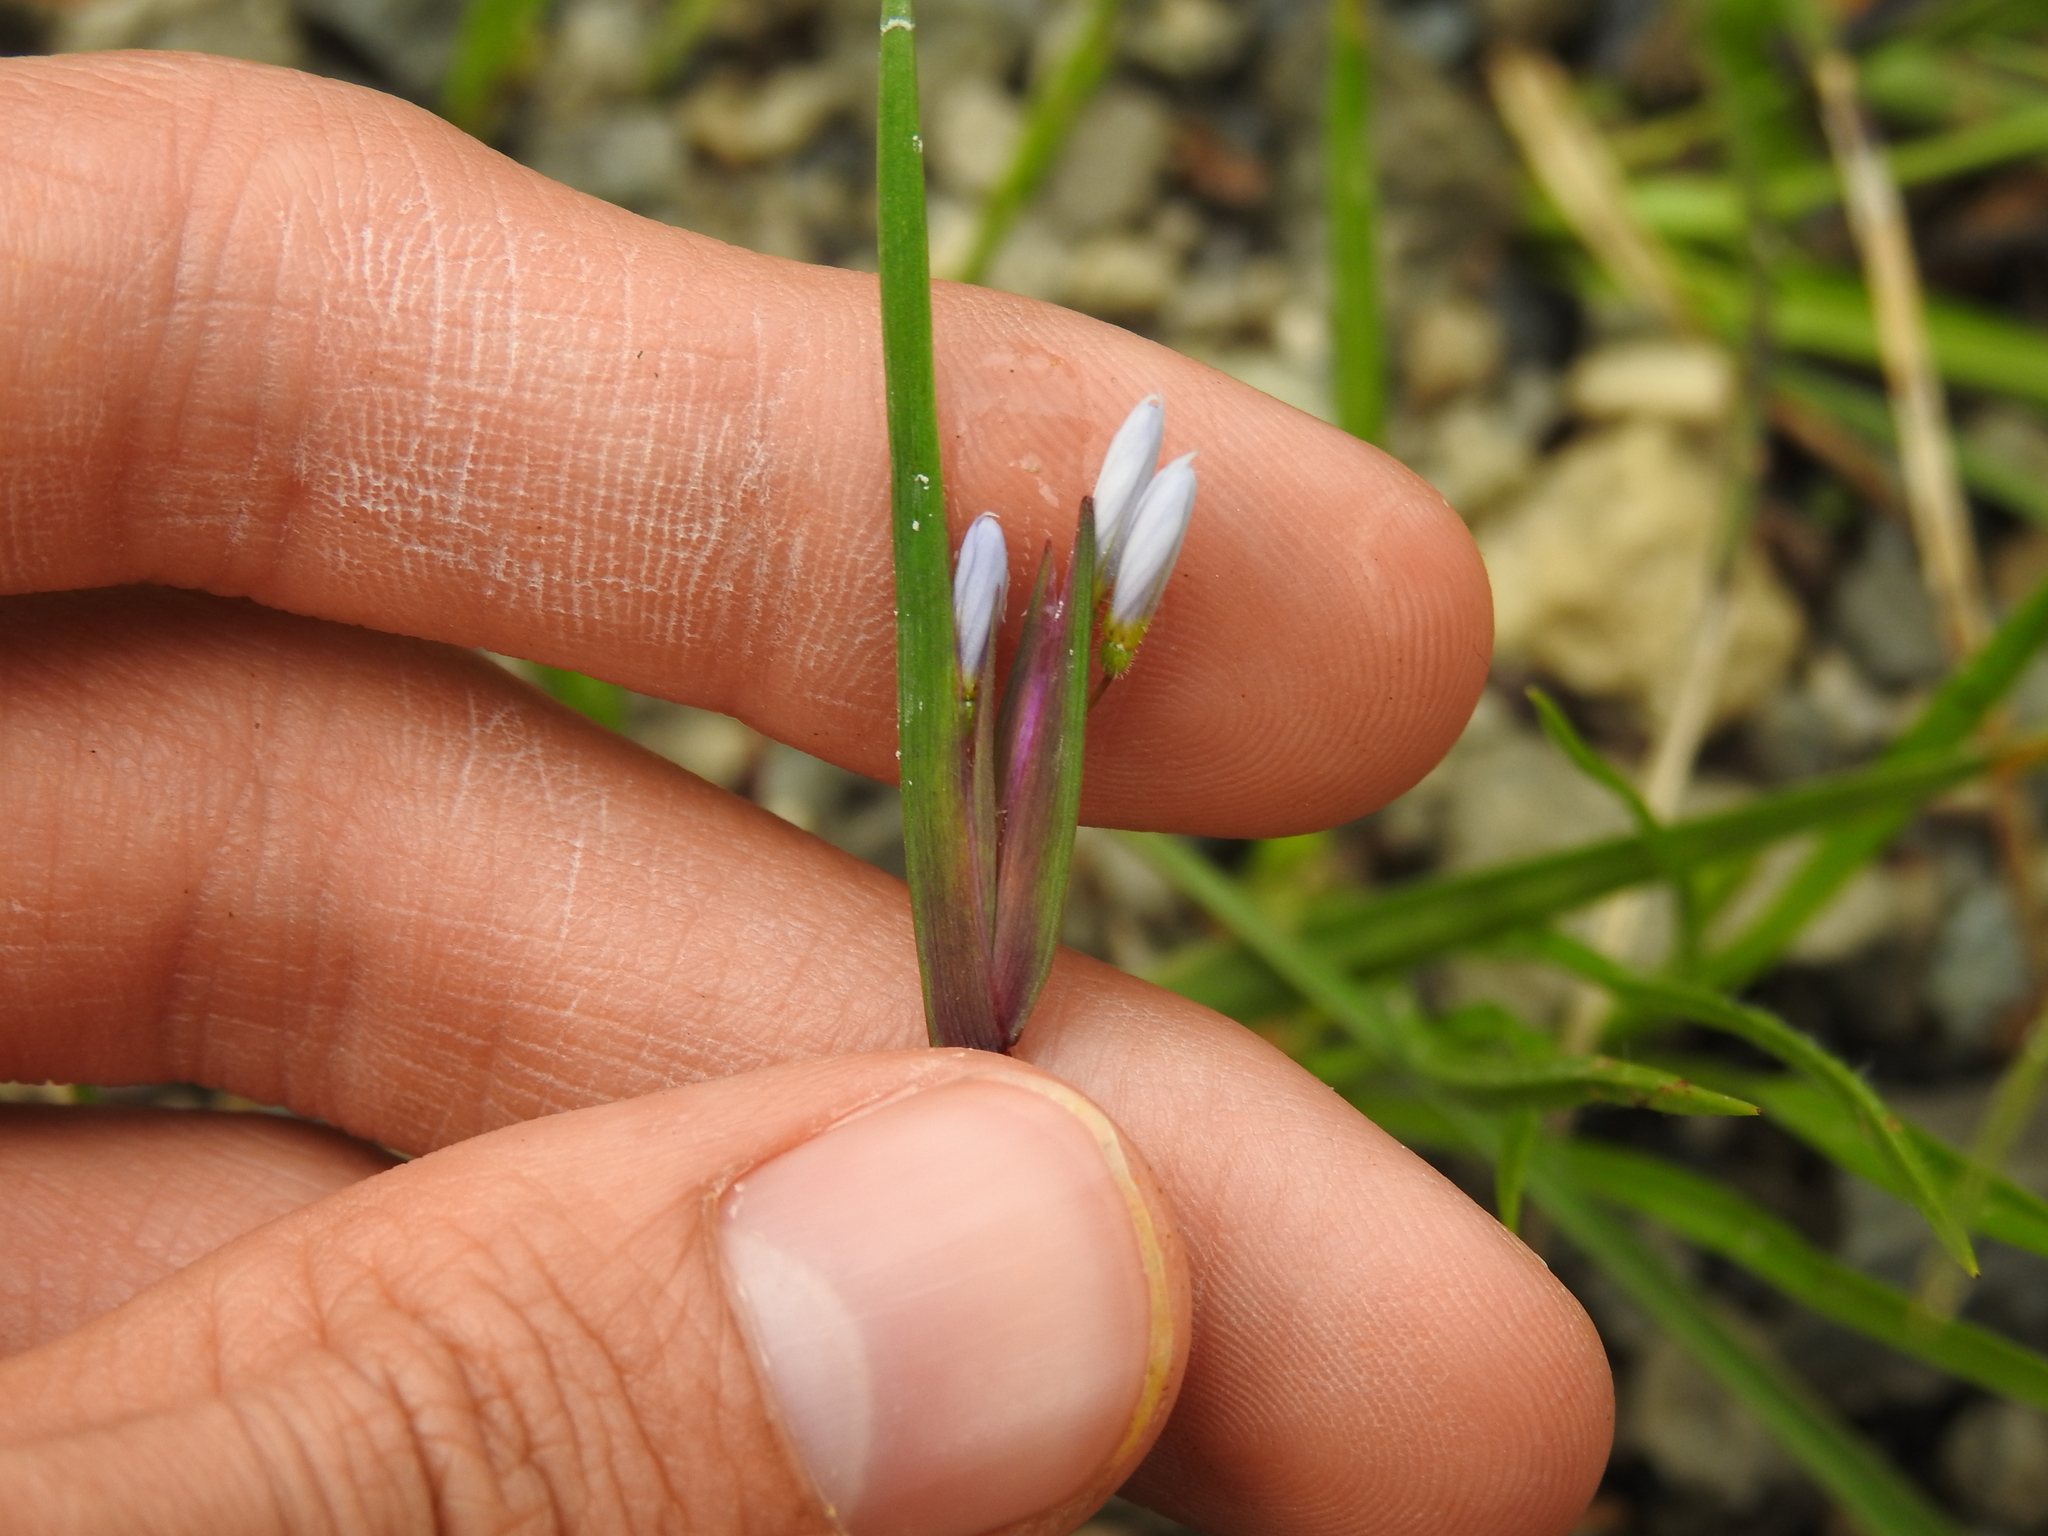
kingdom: Plantae
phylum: Tracheophyta
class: Liliopsida
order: Asparagales
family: Iridaceae
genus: Sisyrinchium
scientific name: Sisyrinchium albidum
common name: Pale blue-eyed-grass
